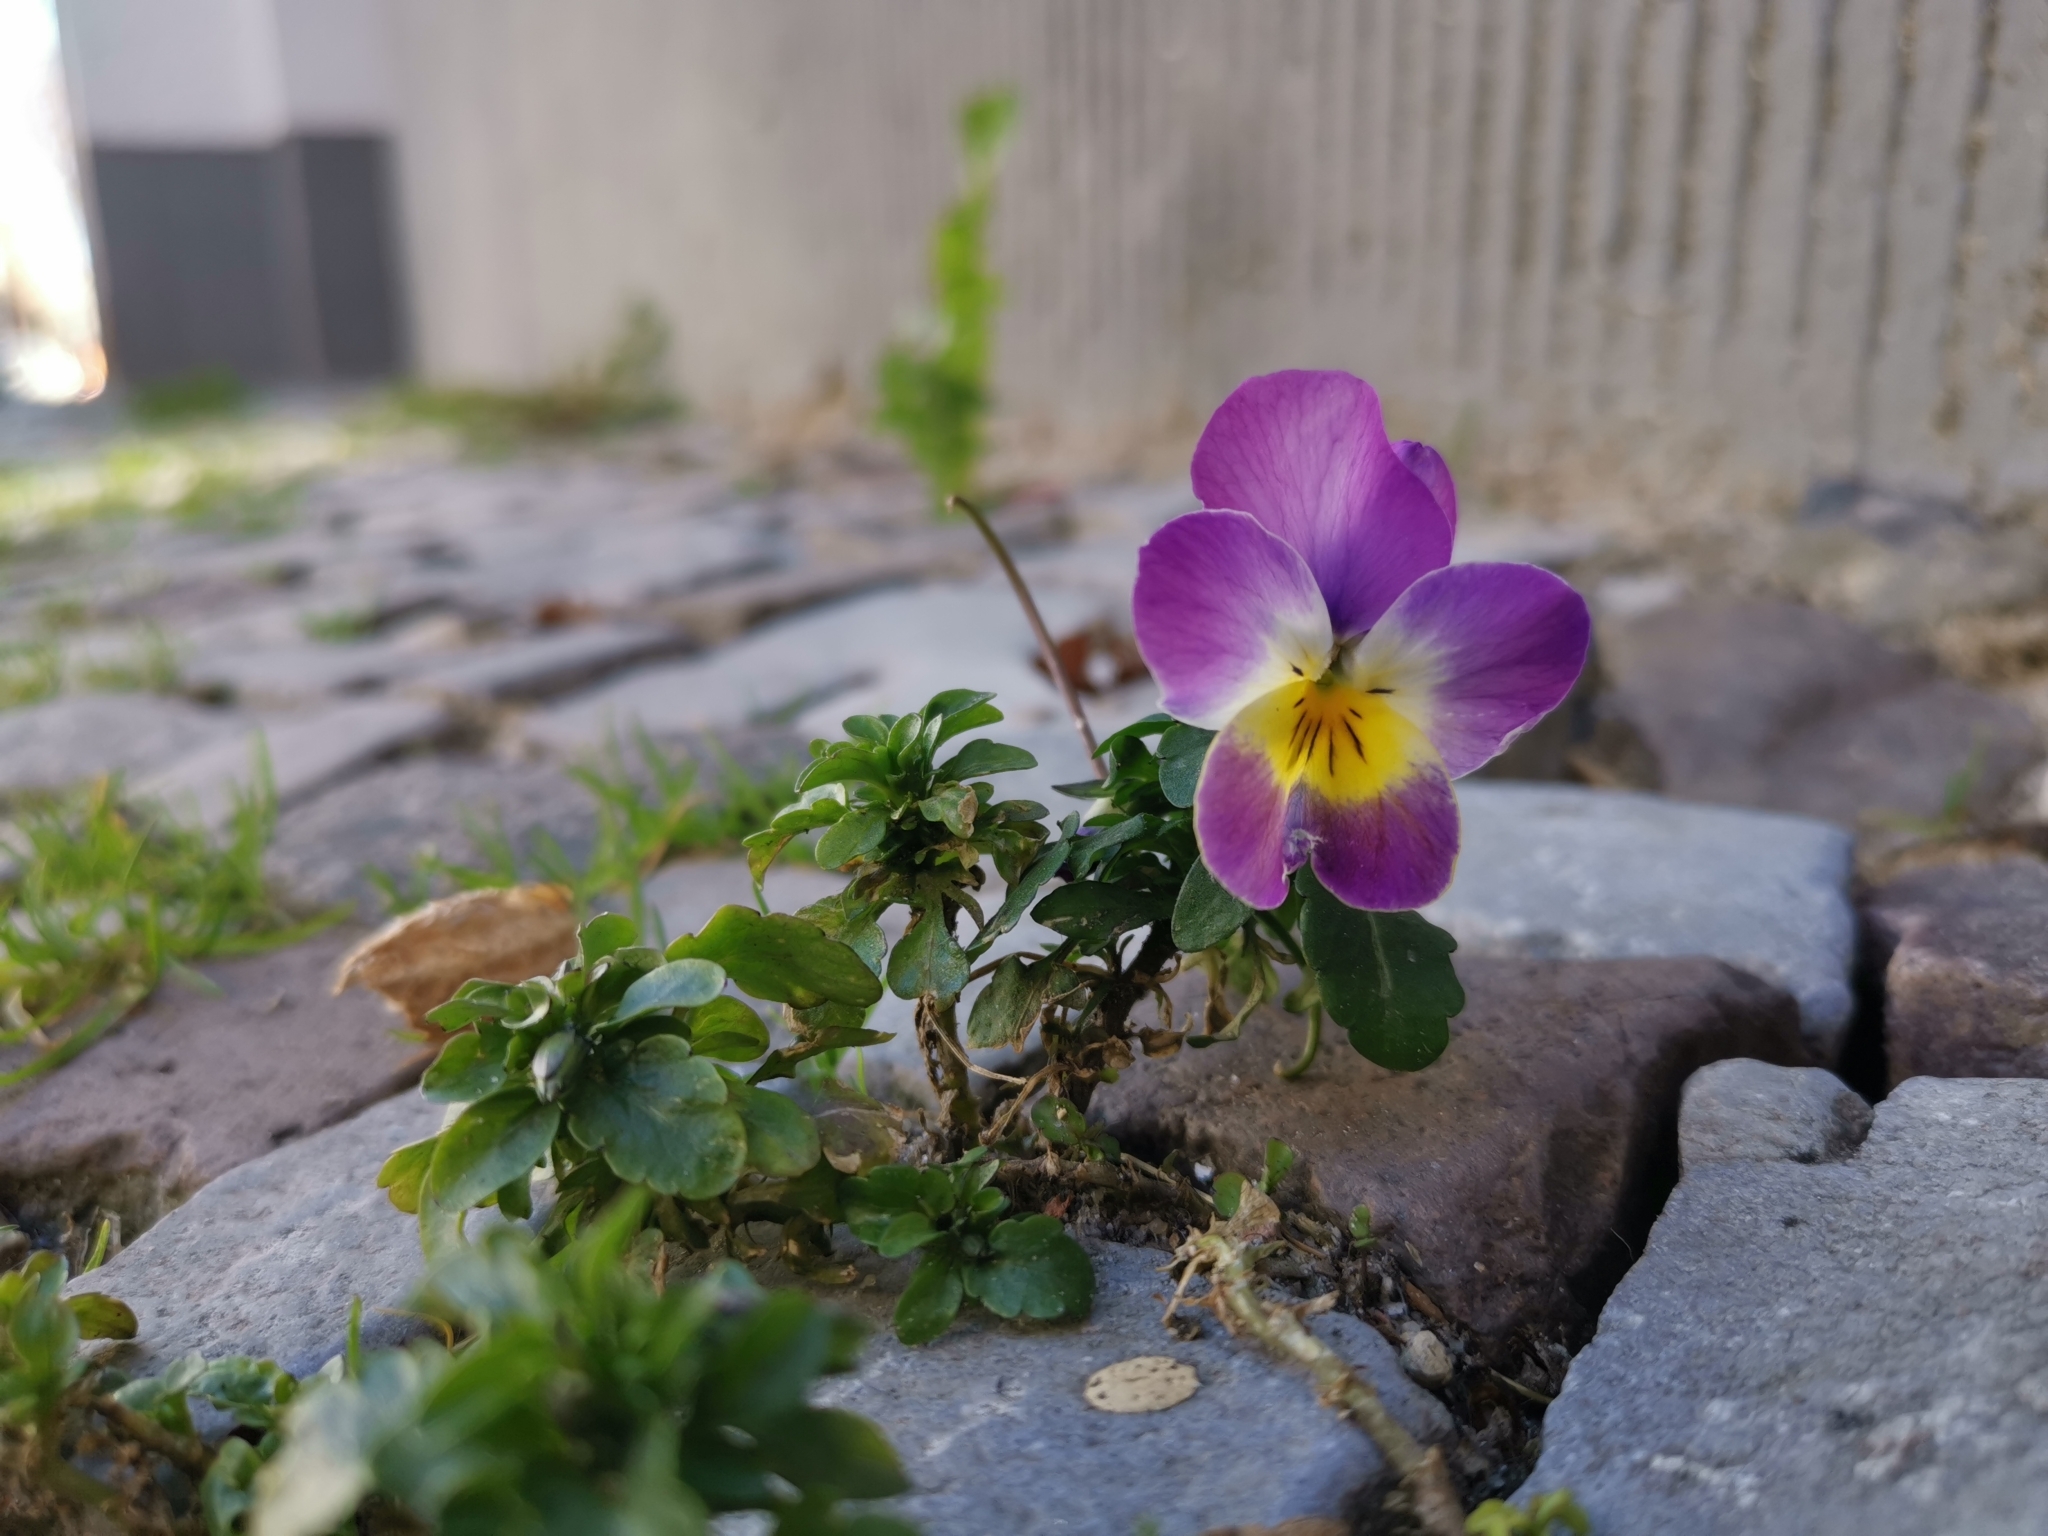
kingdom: Plantae
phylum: Tracheophyta
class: Magnoliopsida
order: Malpighiales
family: Violaceae
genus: Viola
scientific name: Viola wittrockiana
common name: Garden pansy
